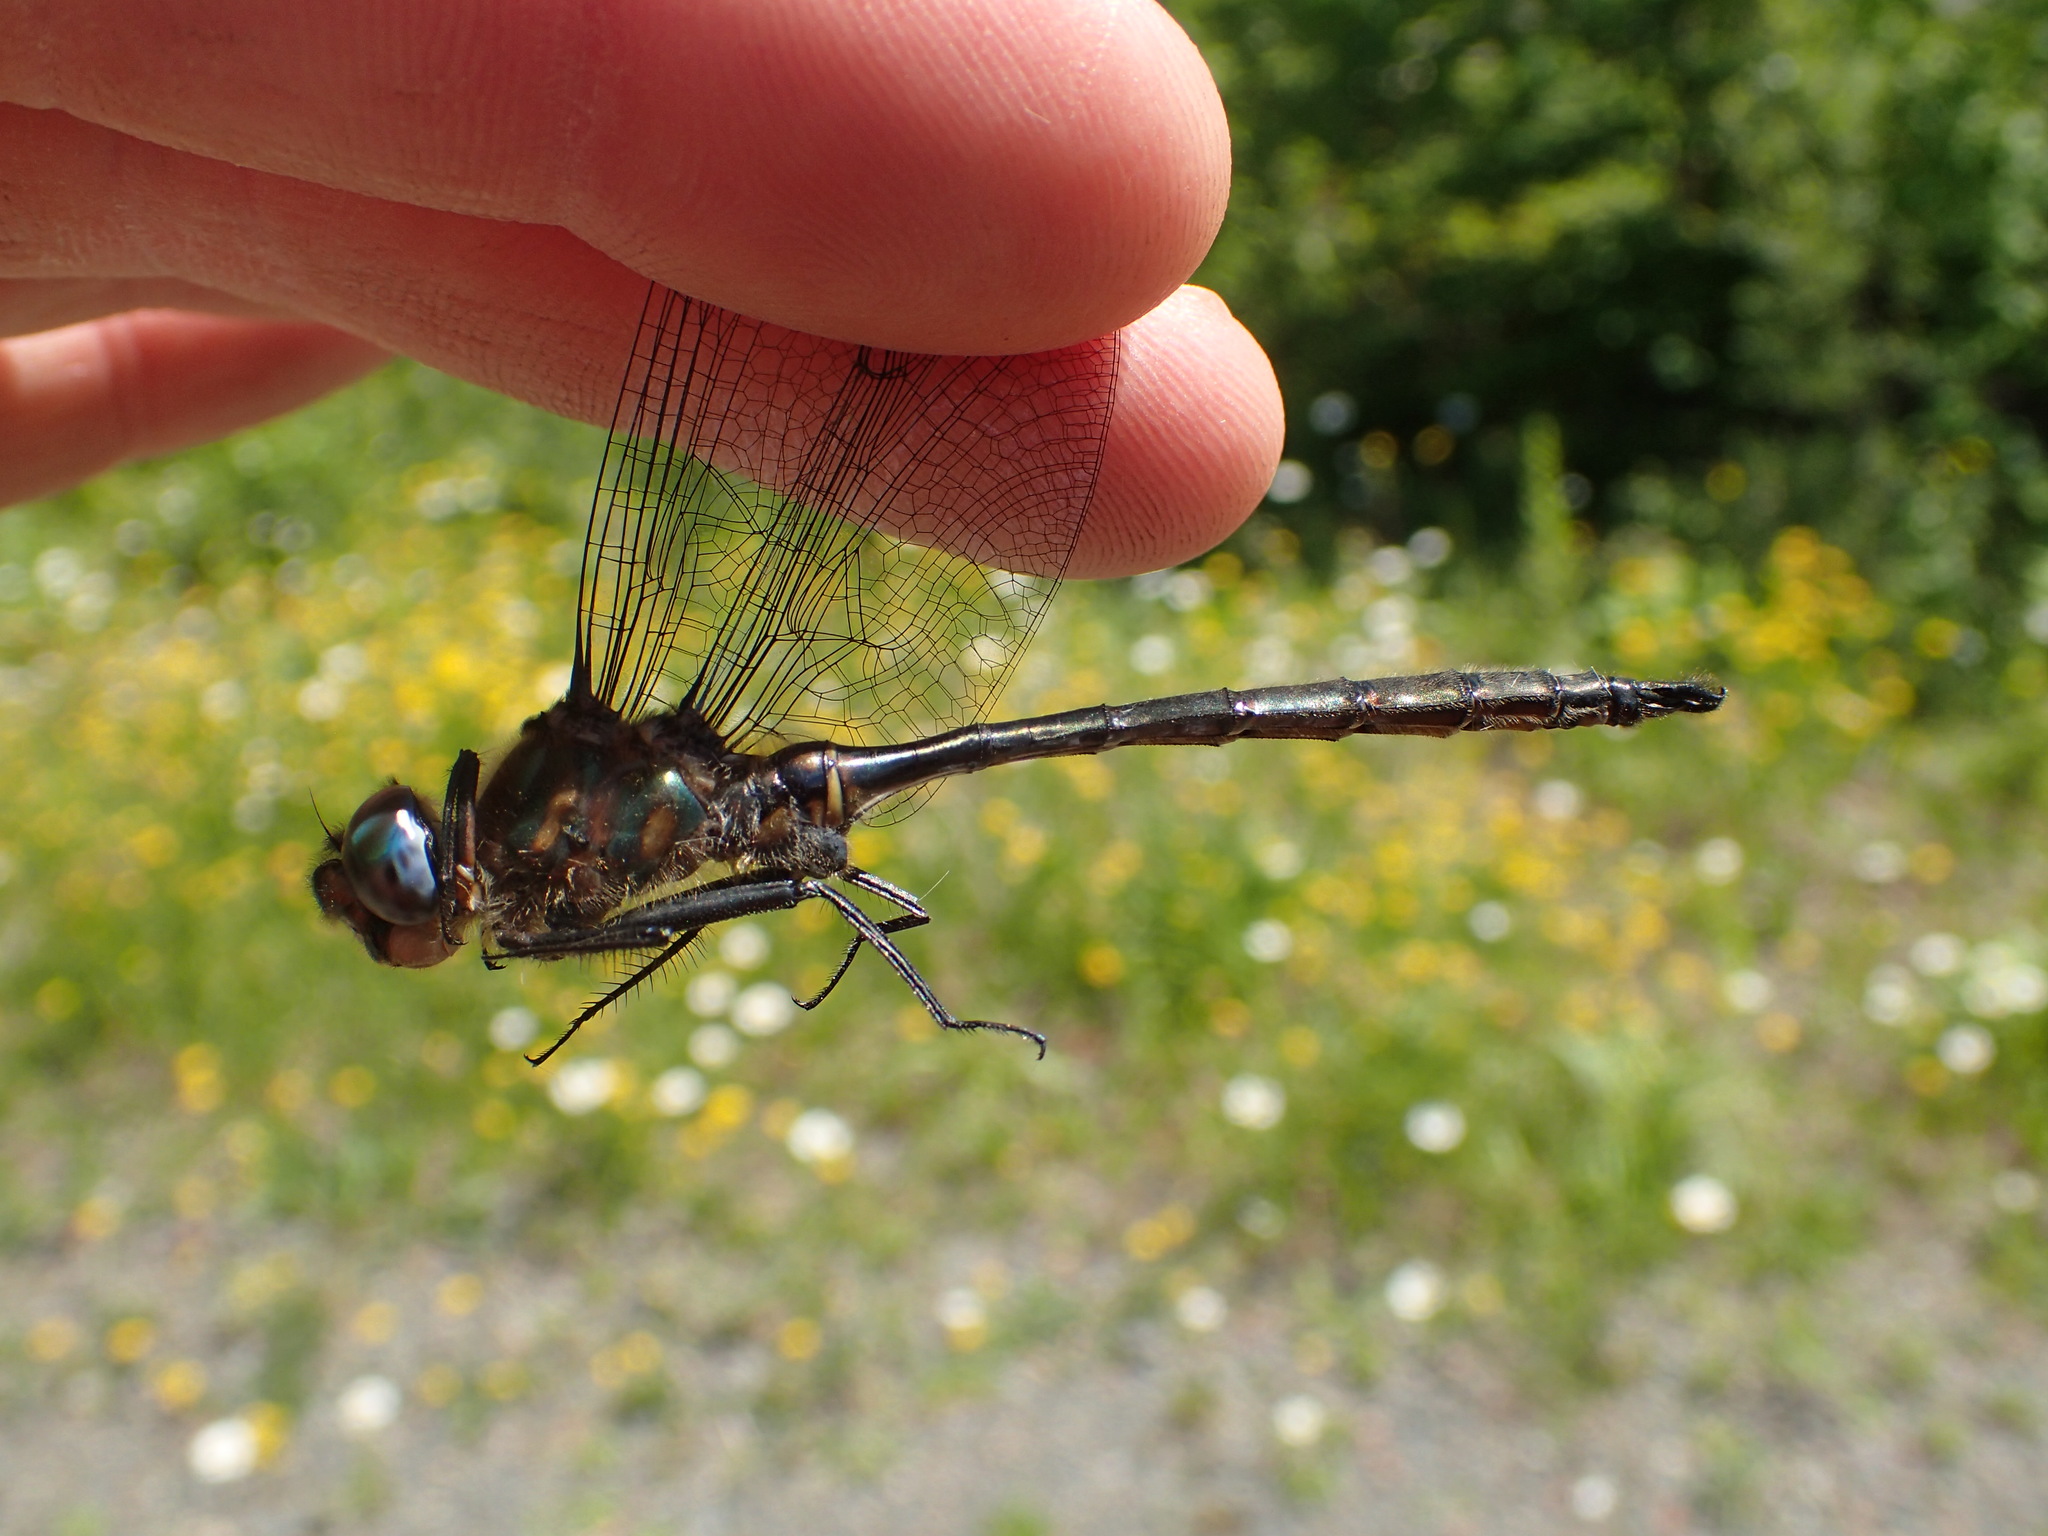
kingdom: Animalia
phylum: Arthropoda
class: Insecta
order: Odonata
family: Corduliidae
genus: Somatochlora
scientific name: Somatochlora williamsoni
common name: Williamson's emerald
